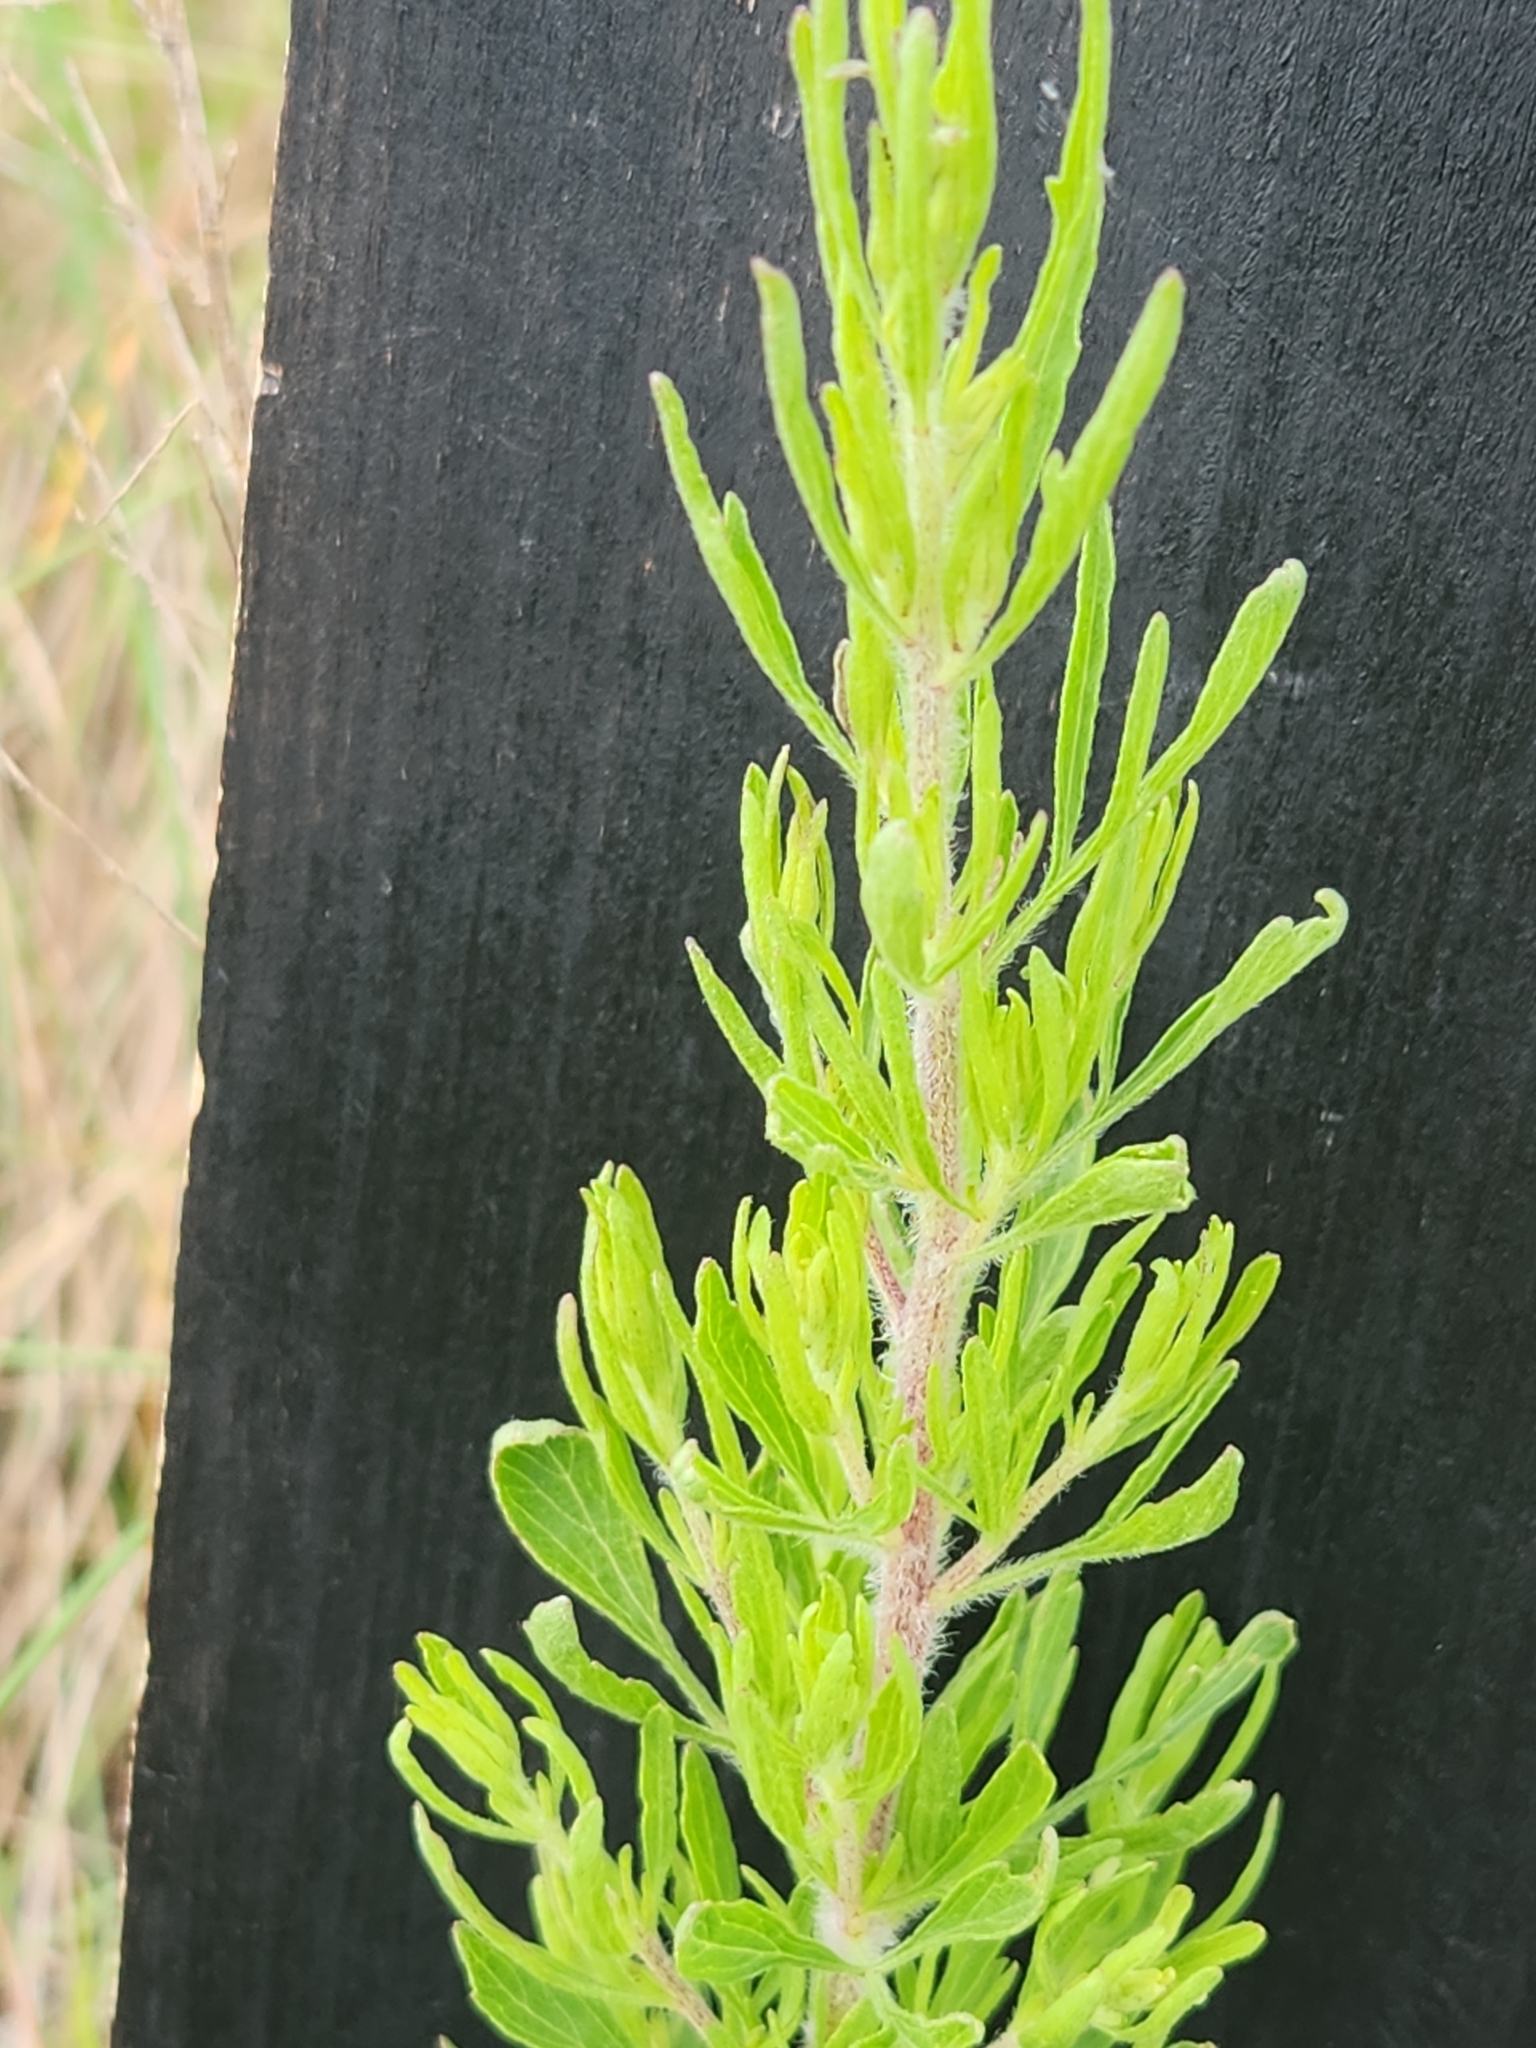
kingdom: Plantae
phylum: Tracheophyta
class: Magnoliopsida
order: Asterales
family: Asteraceae
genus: Eupatorium
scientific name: Eupatorium compositifolium
